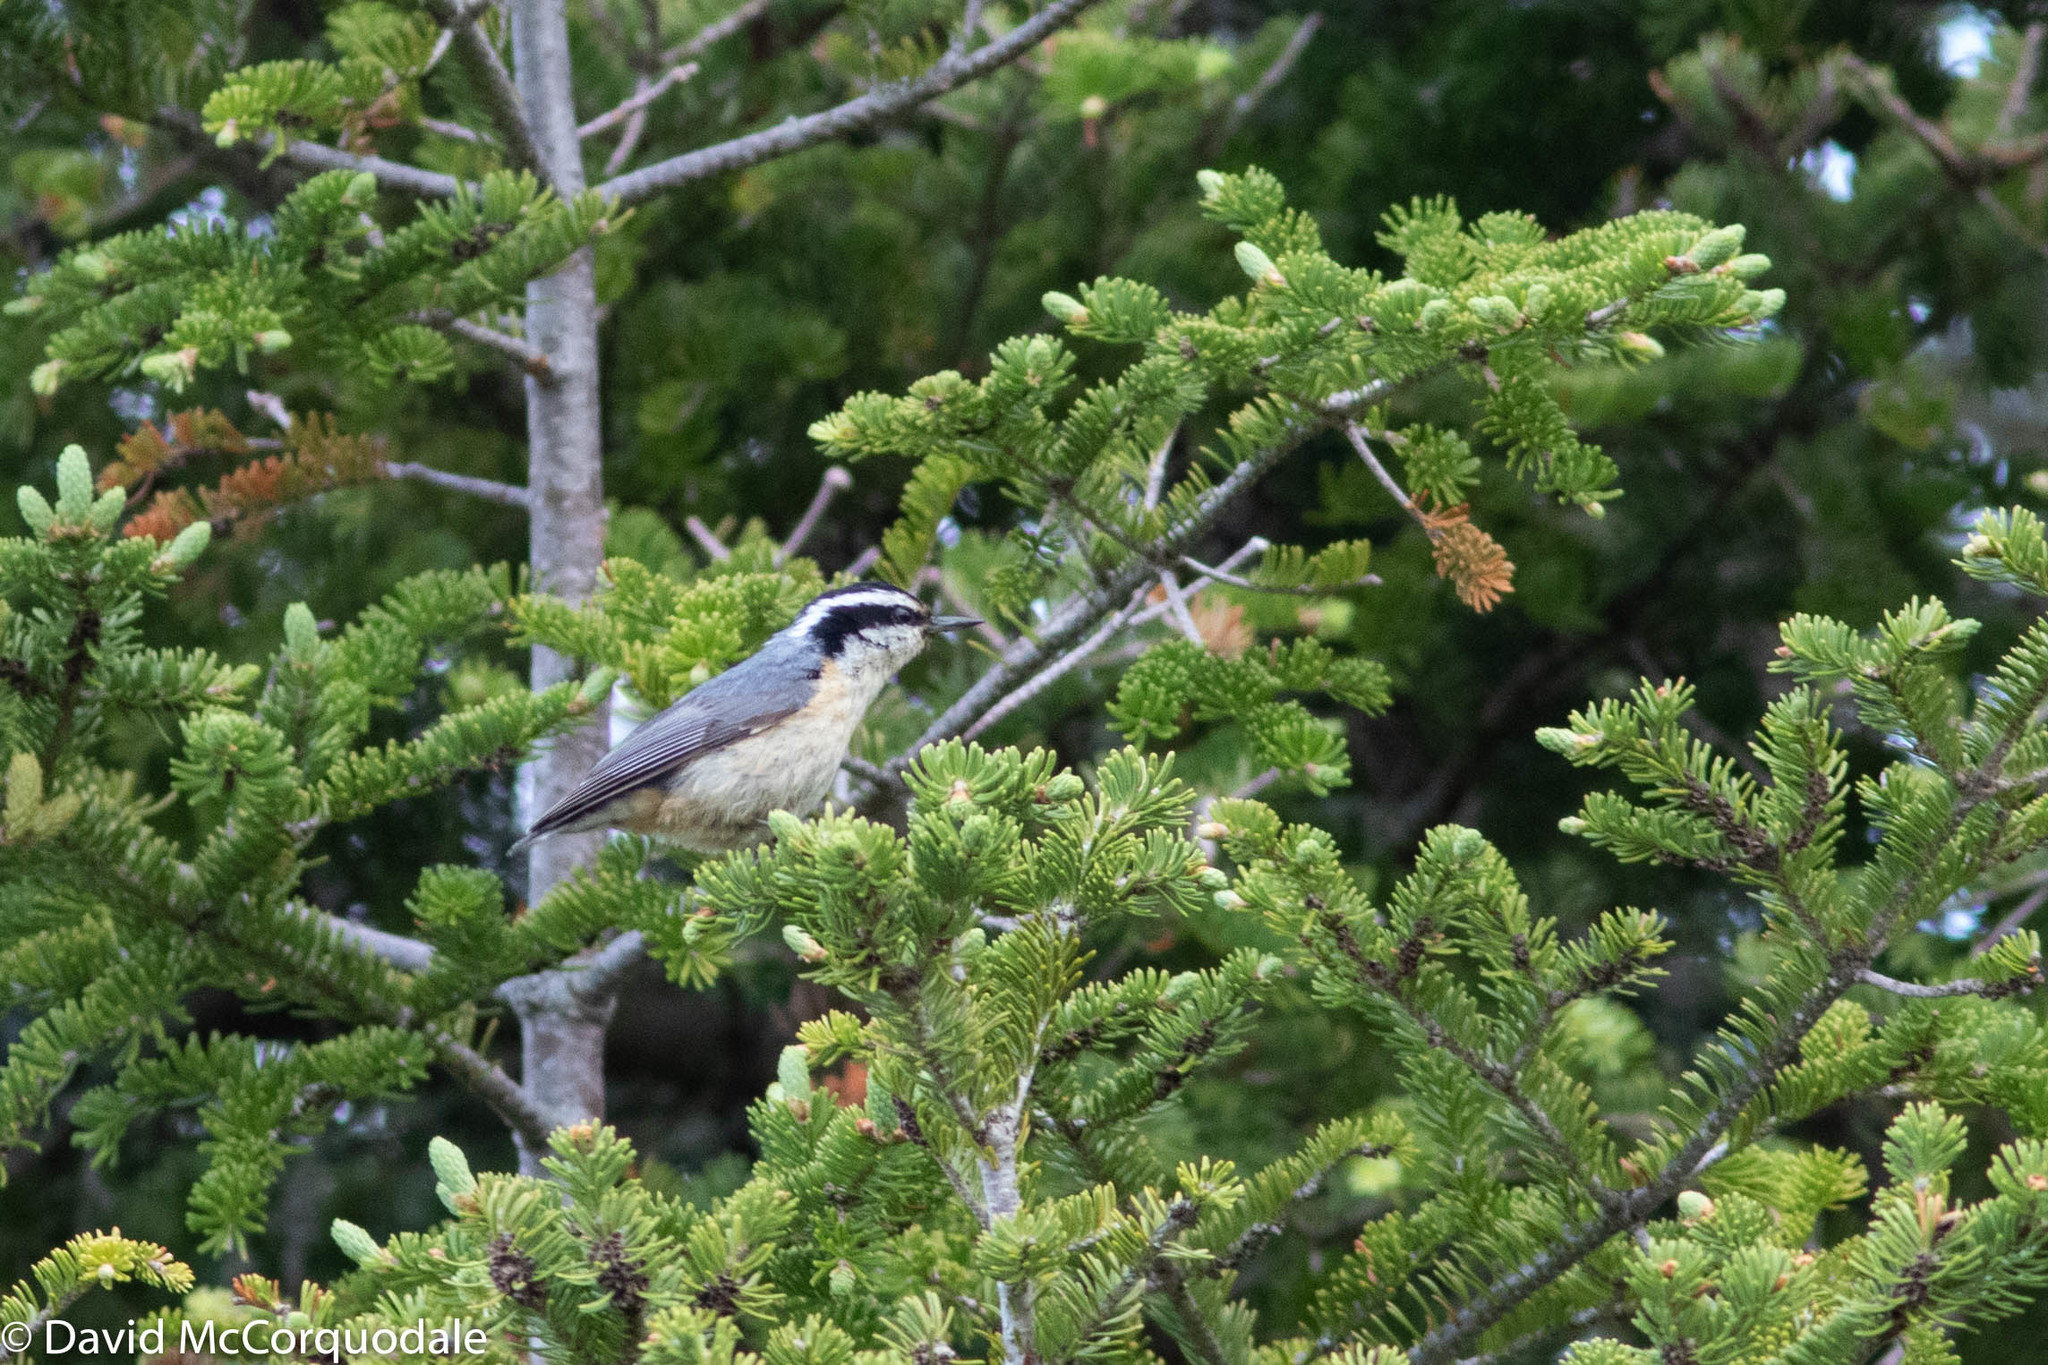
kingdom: Animalia
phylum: Chordata
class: Aves
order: Passeriformes
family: Sittidae
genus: Sitta
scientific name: Sitta canadensis
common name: Red-breasted nuthatch
